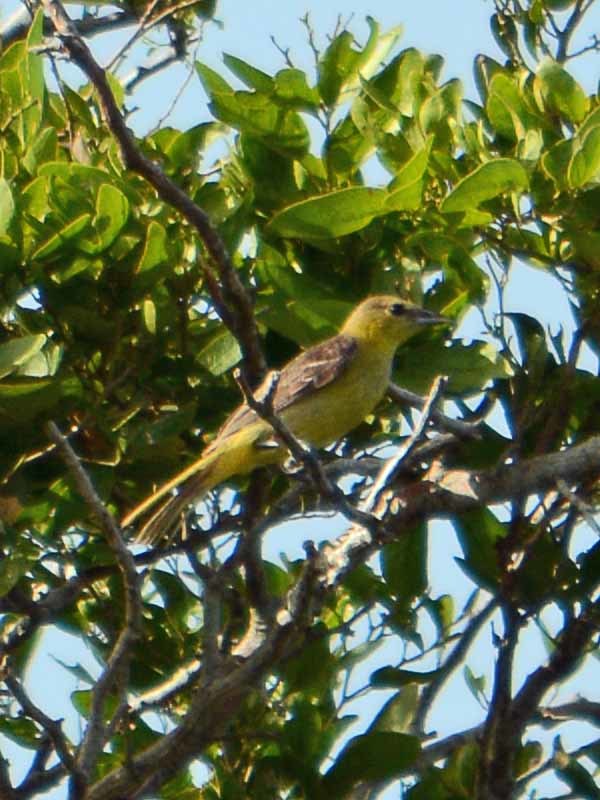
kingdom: Animalia
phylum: Chordata
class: Aves
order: Passeriformes
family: Icteridae
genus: Icterus
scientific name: Icterus spurius
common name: Orchard oriole
